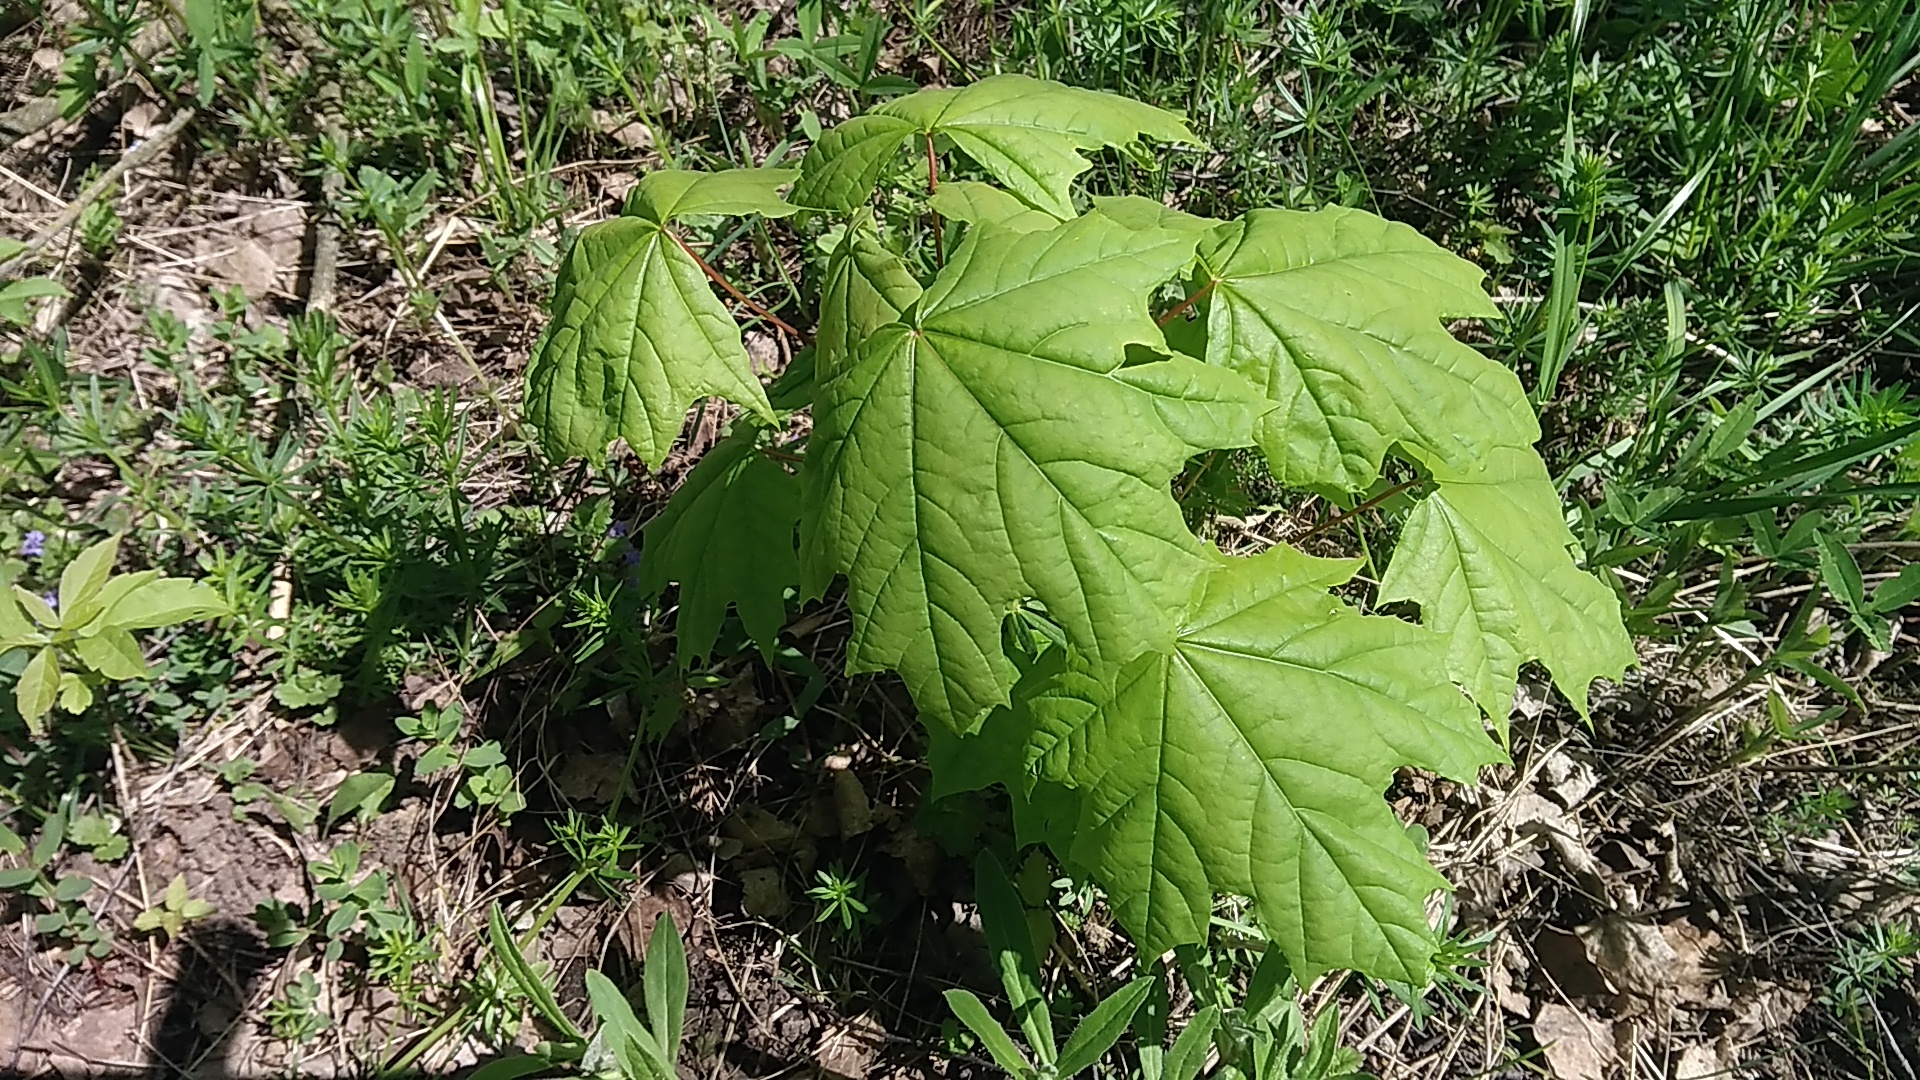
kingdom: Plantae
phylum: Tracheophyta
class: Magnoliopsida
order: Sapindales
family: Sapindaceae
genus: Acer
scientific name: Acer platanoides
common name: Norway maple
